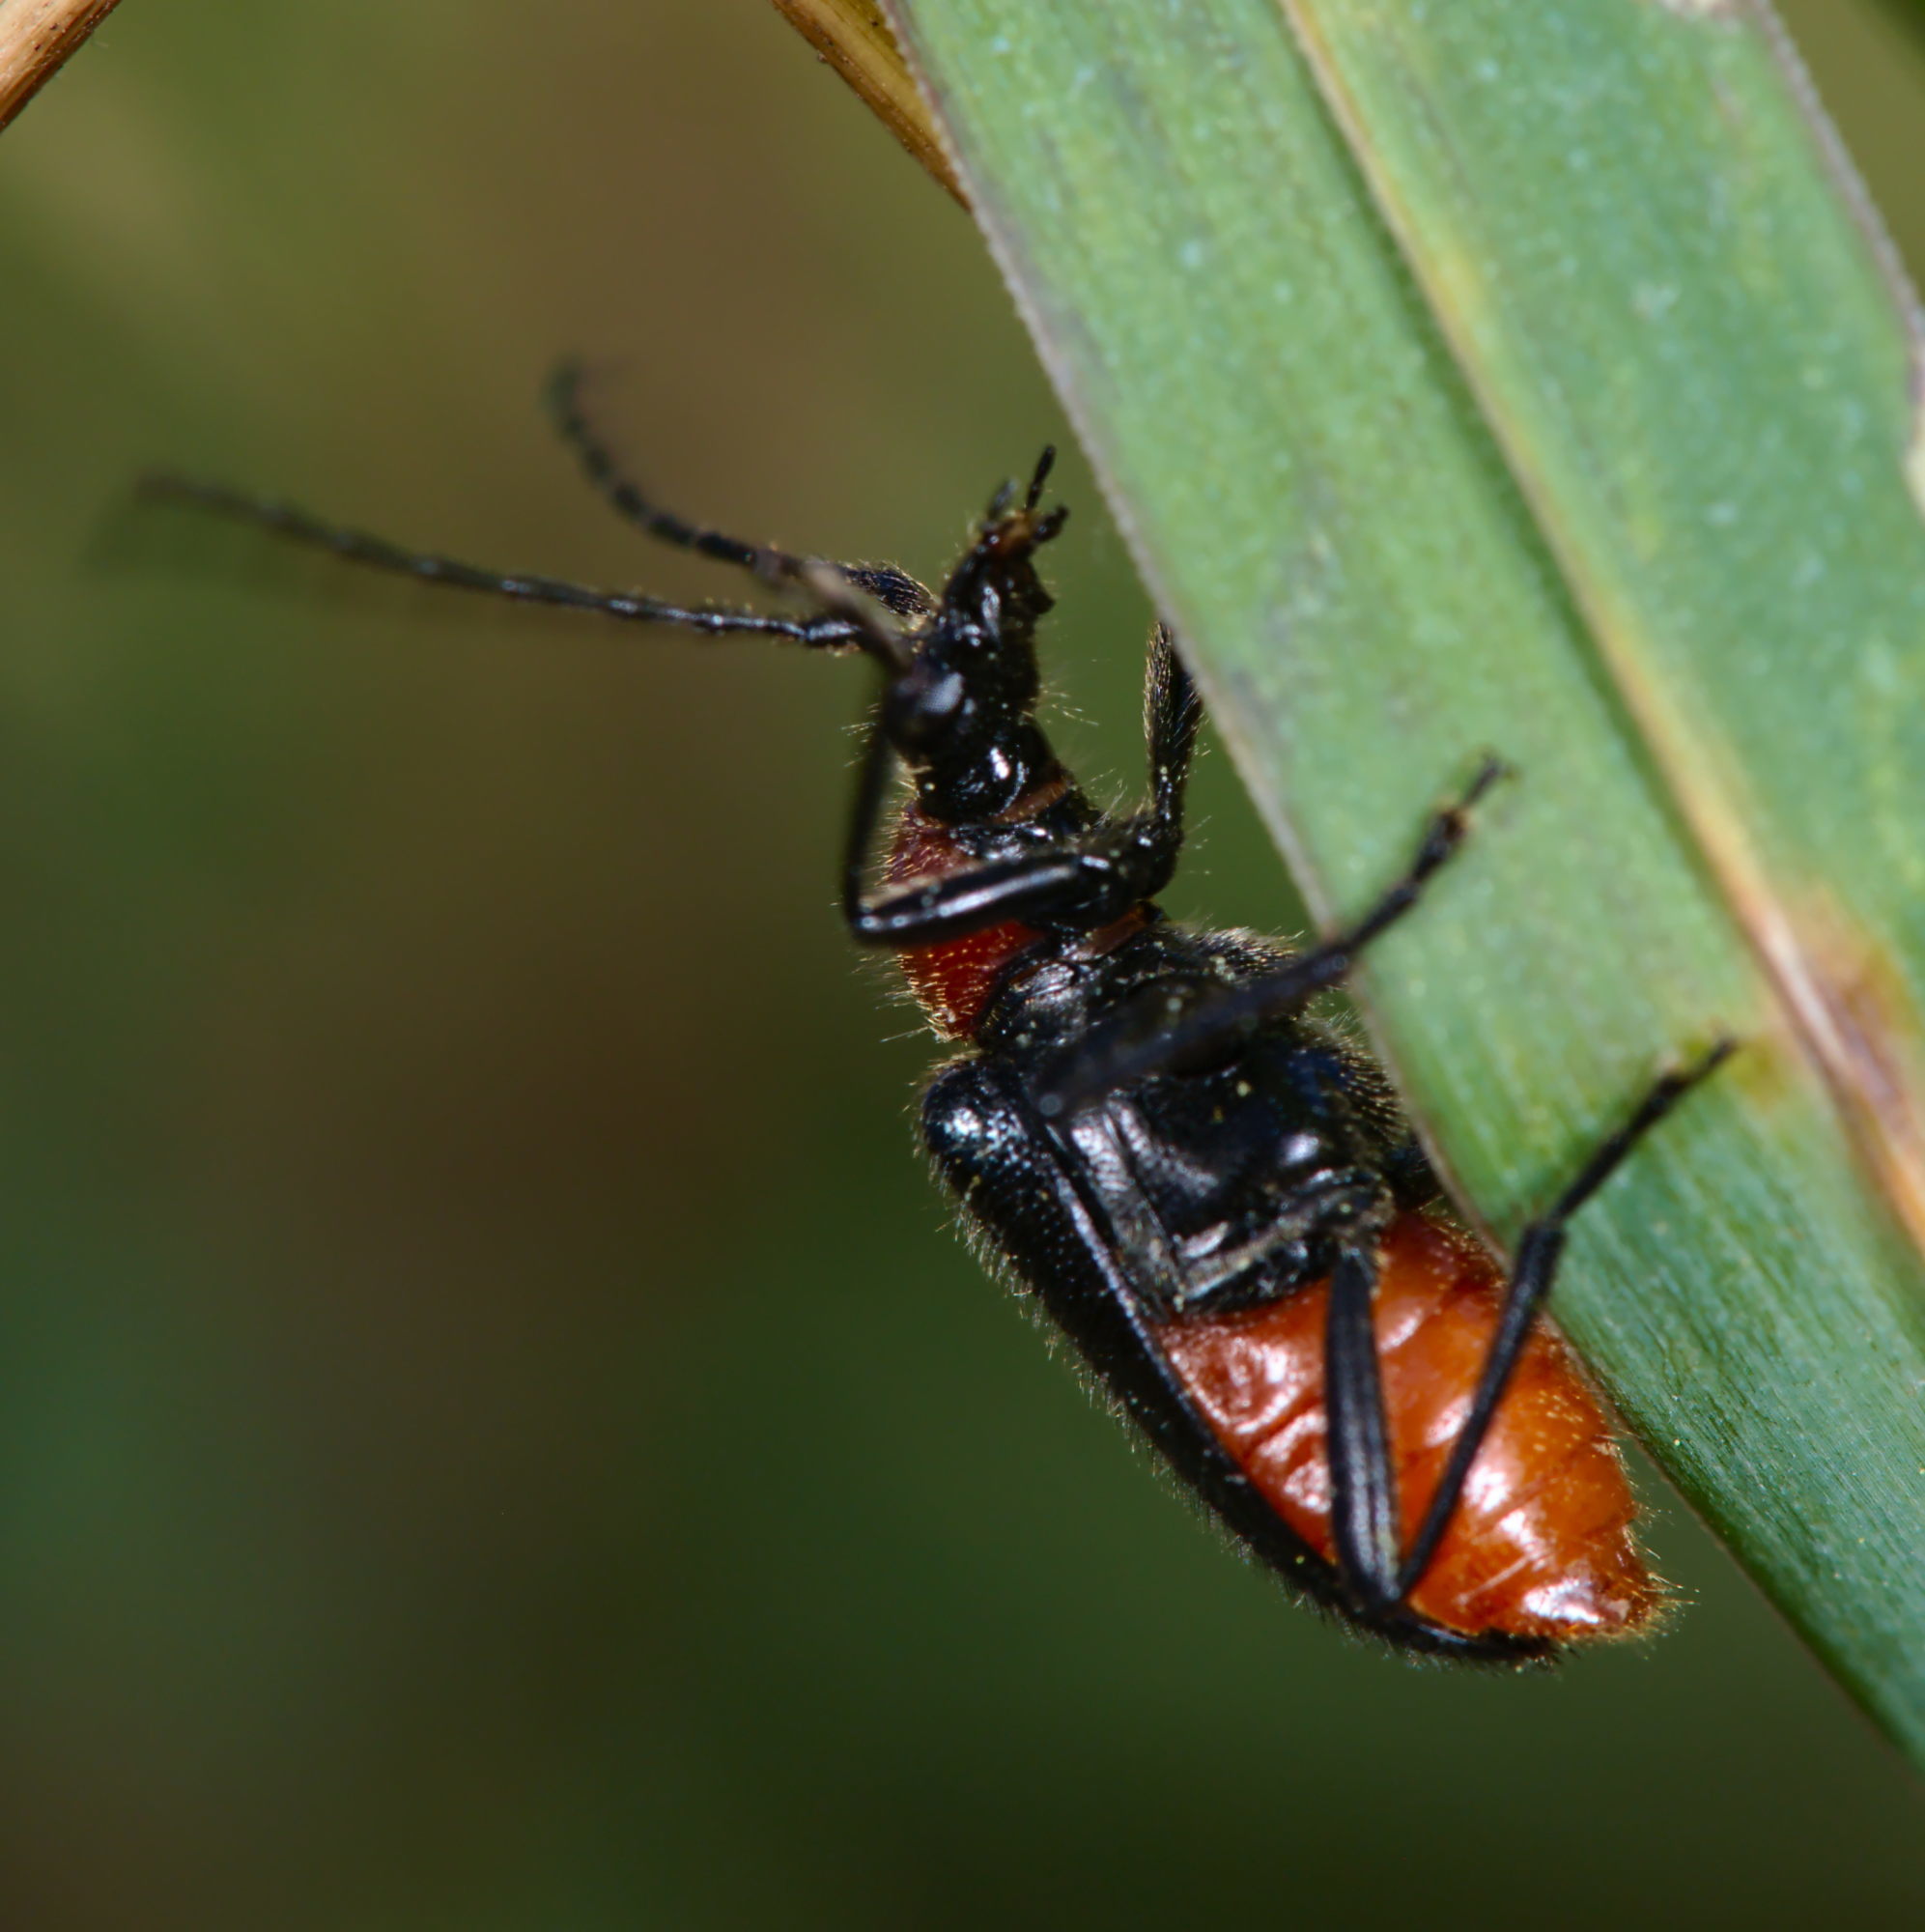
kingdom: Animalia
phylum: Arthropoda
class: Insecta
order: Coleoptera
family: Cerambycidae
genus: Dinoptera
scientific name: Dinoptera collaris
